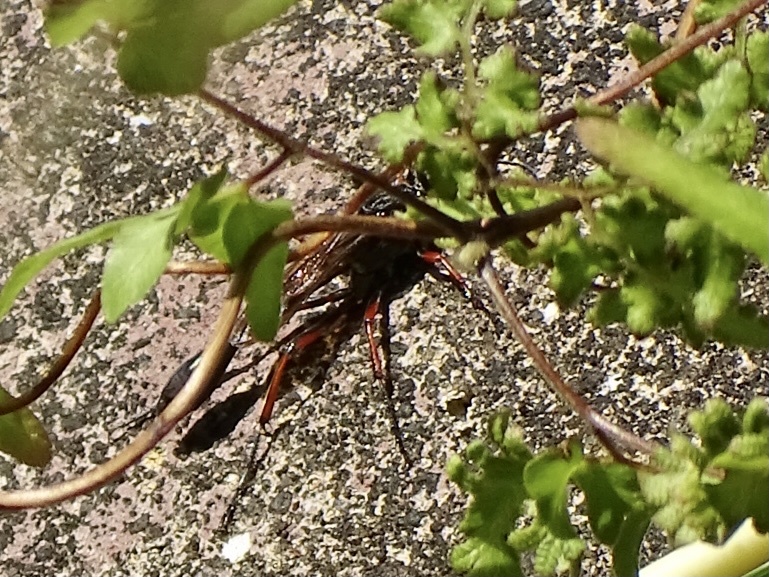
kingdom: Animalia
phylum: Arthropoda
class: Insecta
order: Hymenoptera
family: Sphecidae
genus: Ammophila
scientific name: Ammophila clavus
